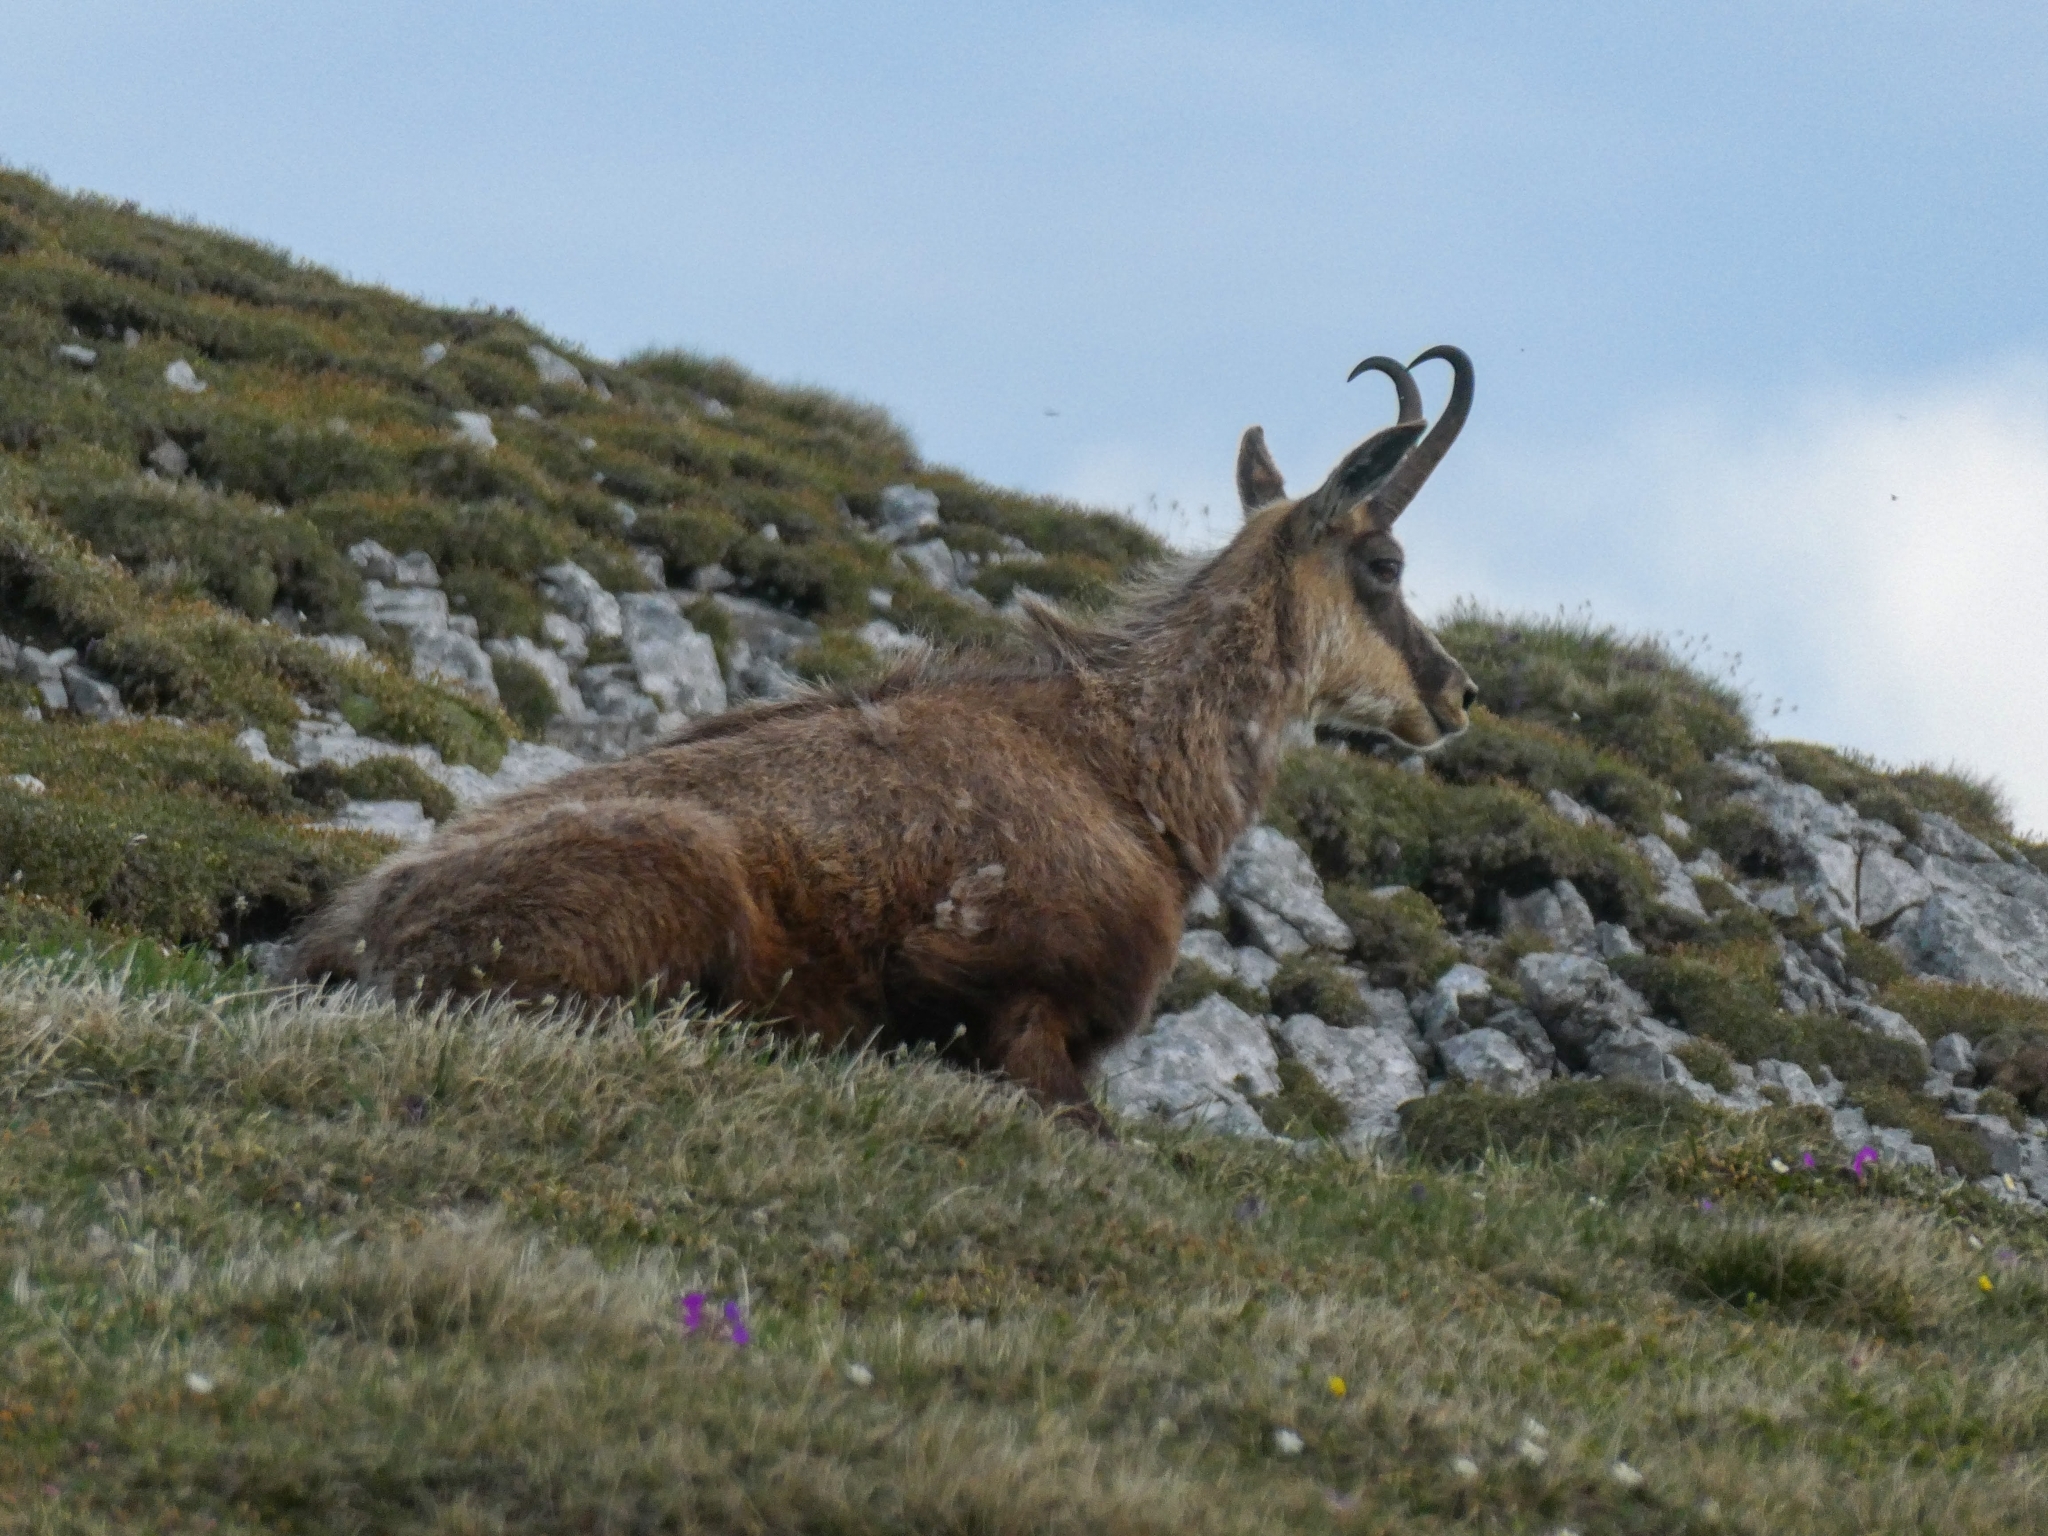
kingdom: Animalia
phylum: Chordata
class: Mammalia
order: Artiodactyla
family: Bovidae
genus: Rupicapra
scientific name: Rupicapra rupicapra
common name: Chamois
